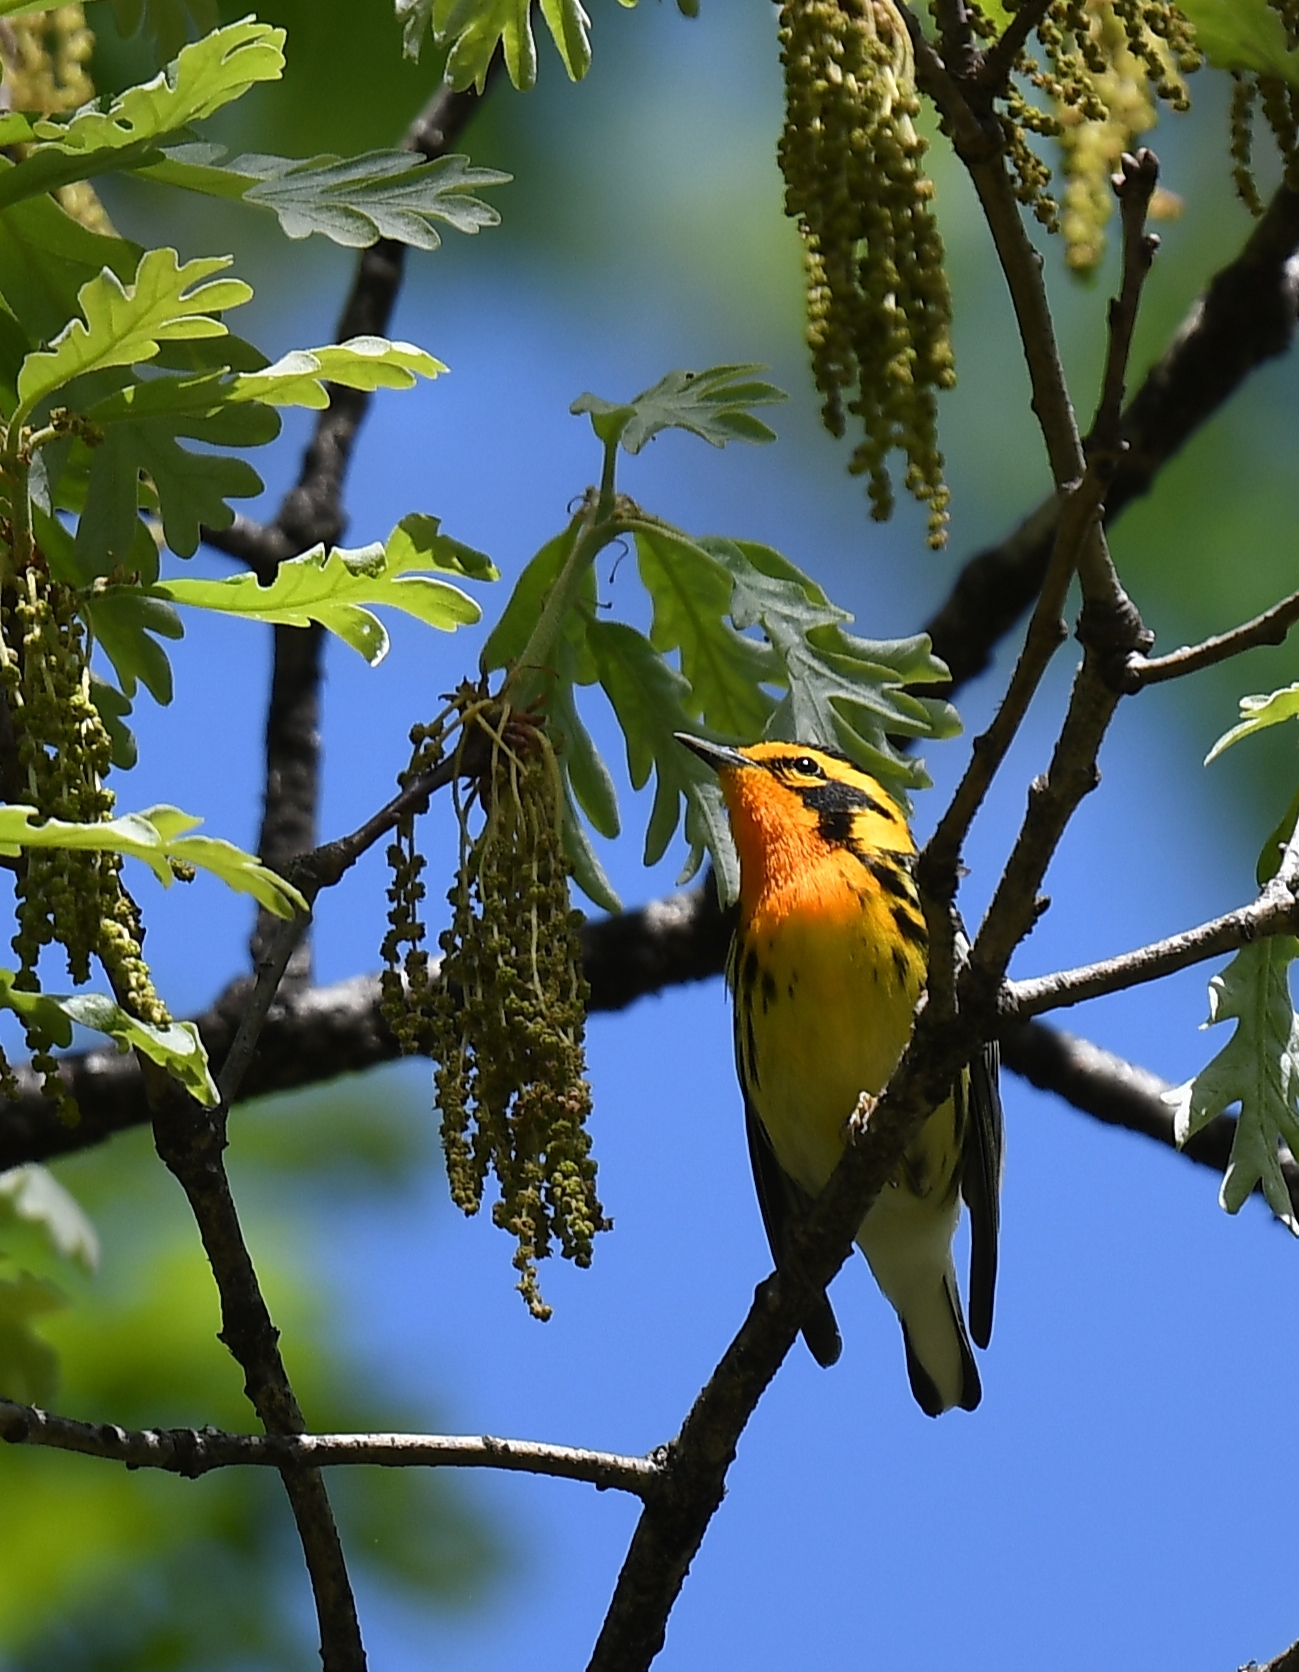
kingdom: Animalia
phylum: Chordata
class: Aves
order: Passeriformes
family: Parulidae
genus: Setophaga
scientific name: Setophaga fusca
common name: Blackburnian warbler
